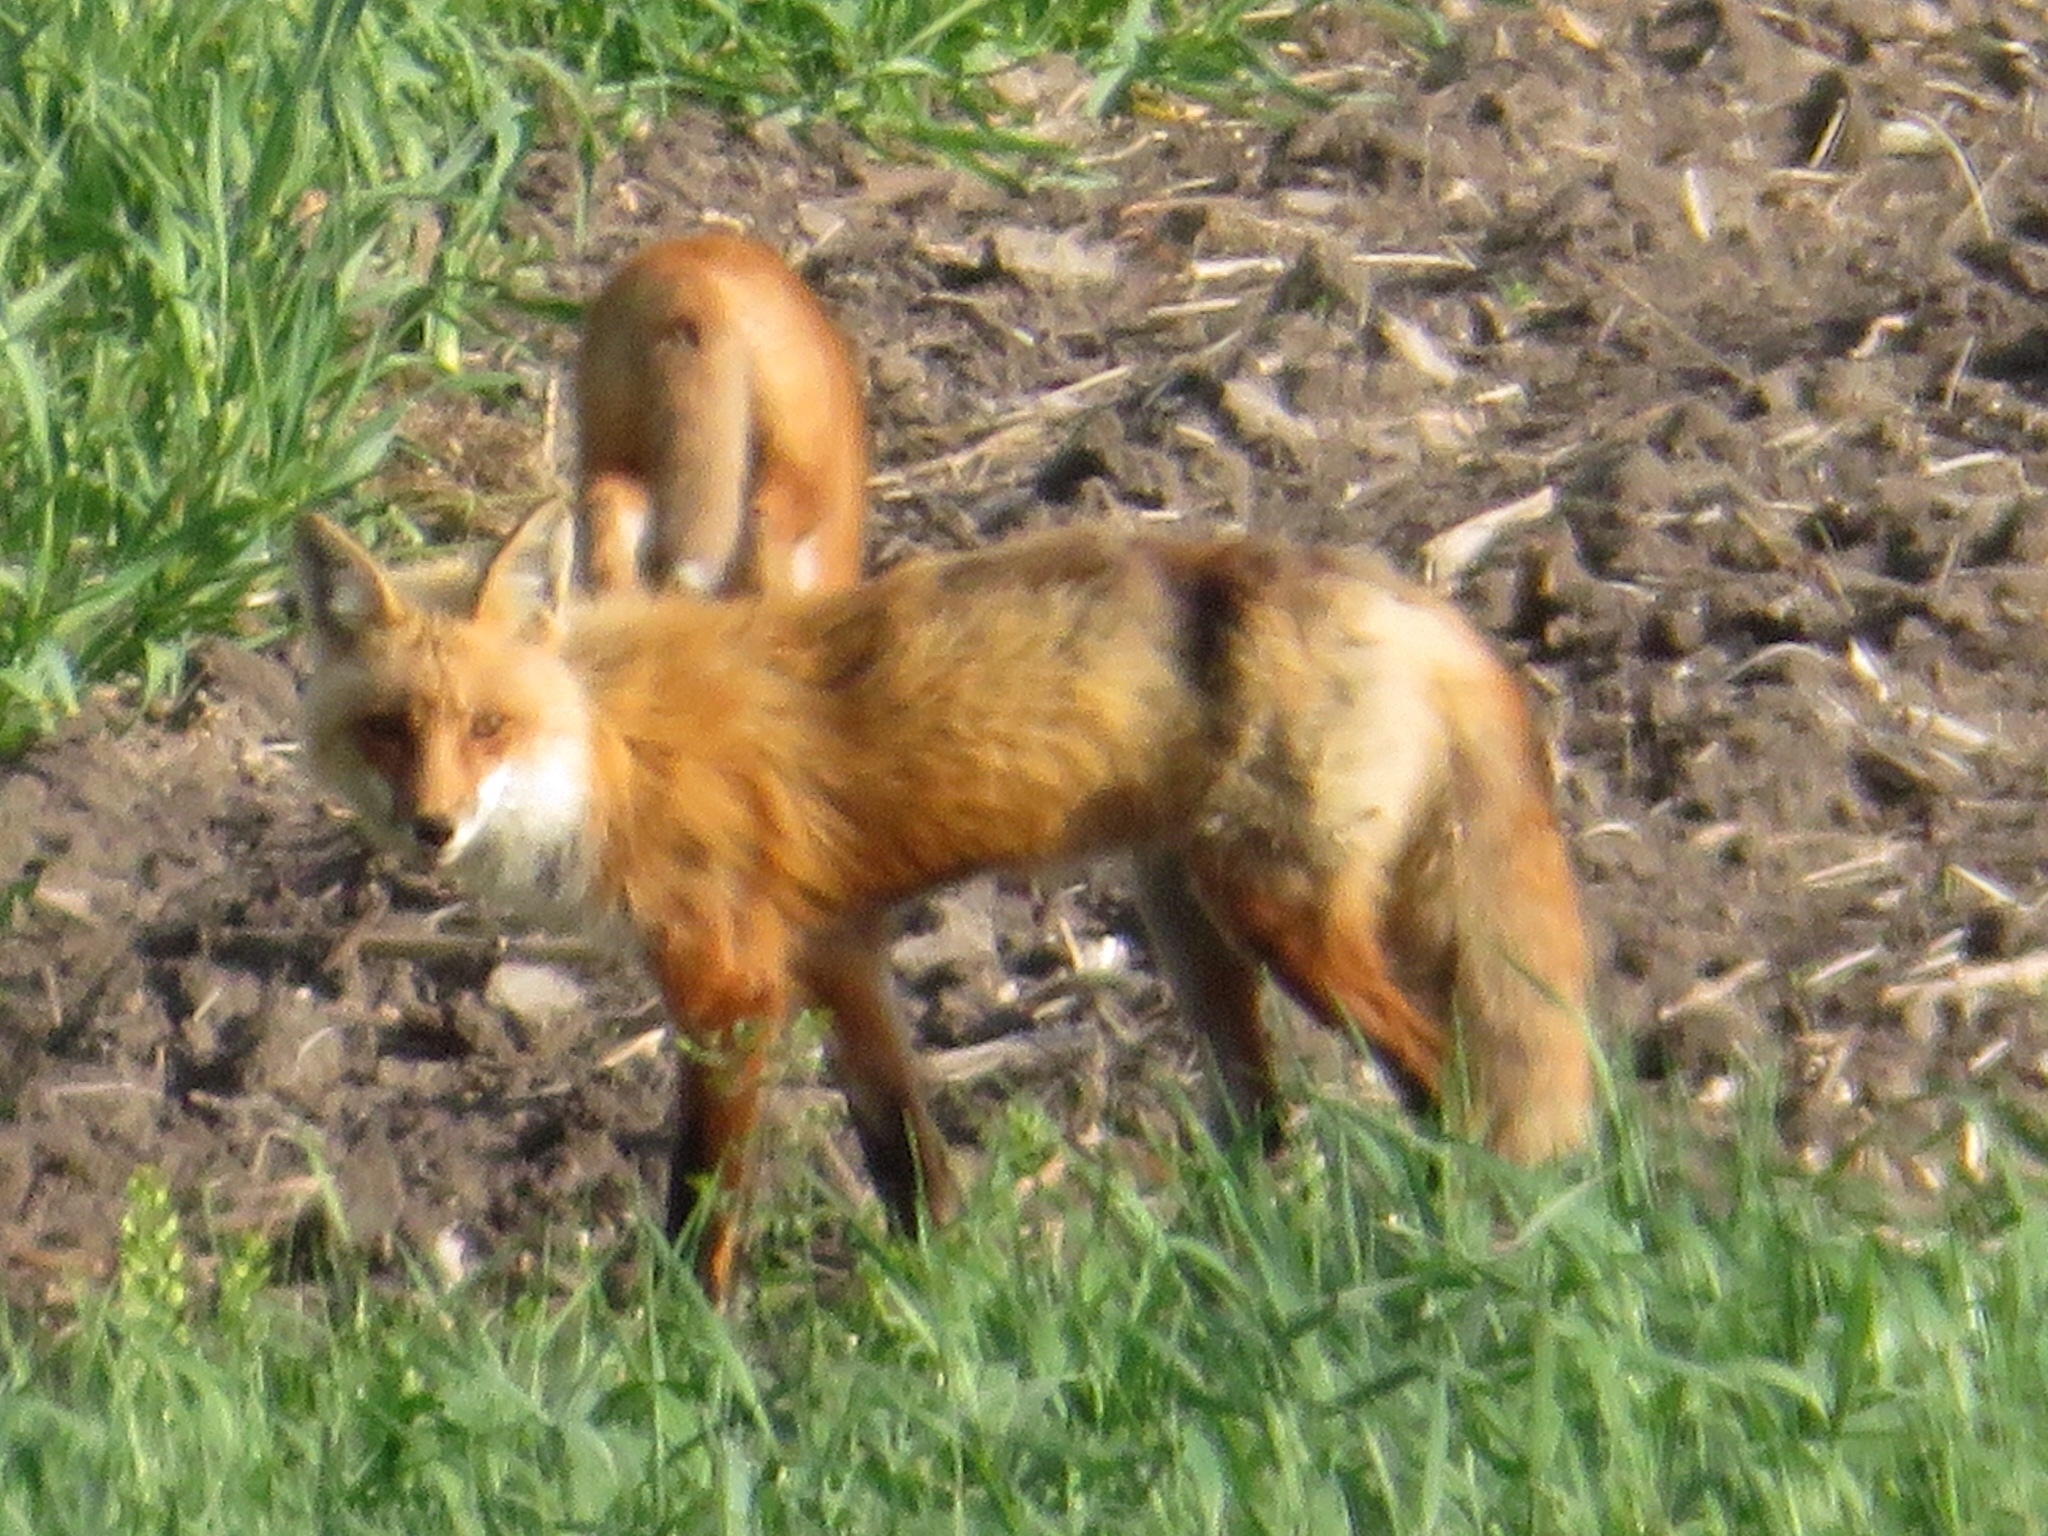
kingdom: Animalia
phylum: Chordata
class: Mammalia
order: Carnivora
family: Canidae
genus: Vulpes
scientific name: Vulpes vulpes
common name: Red fox
